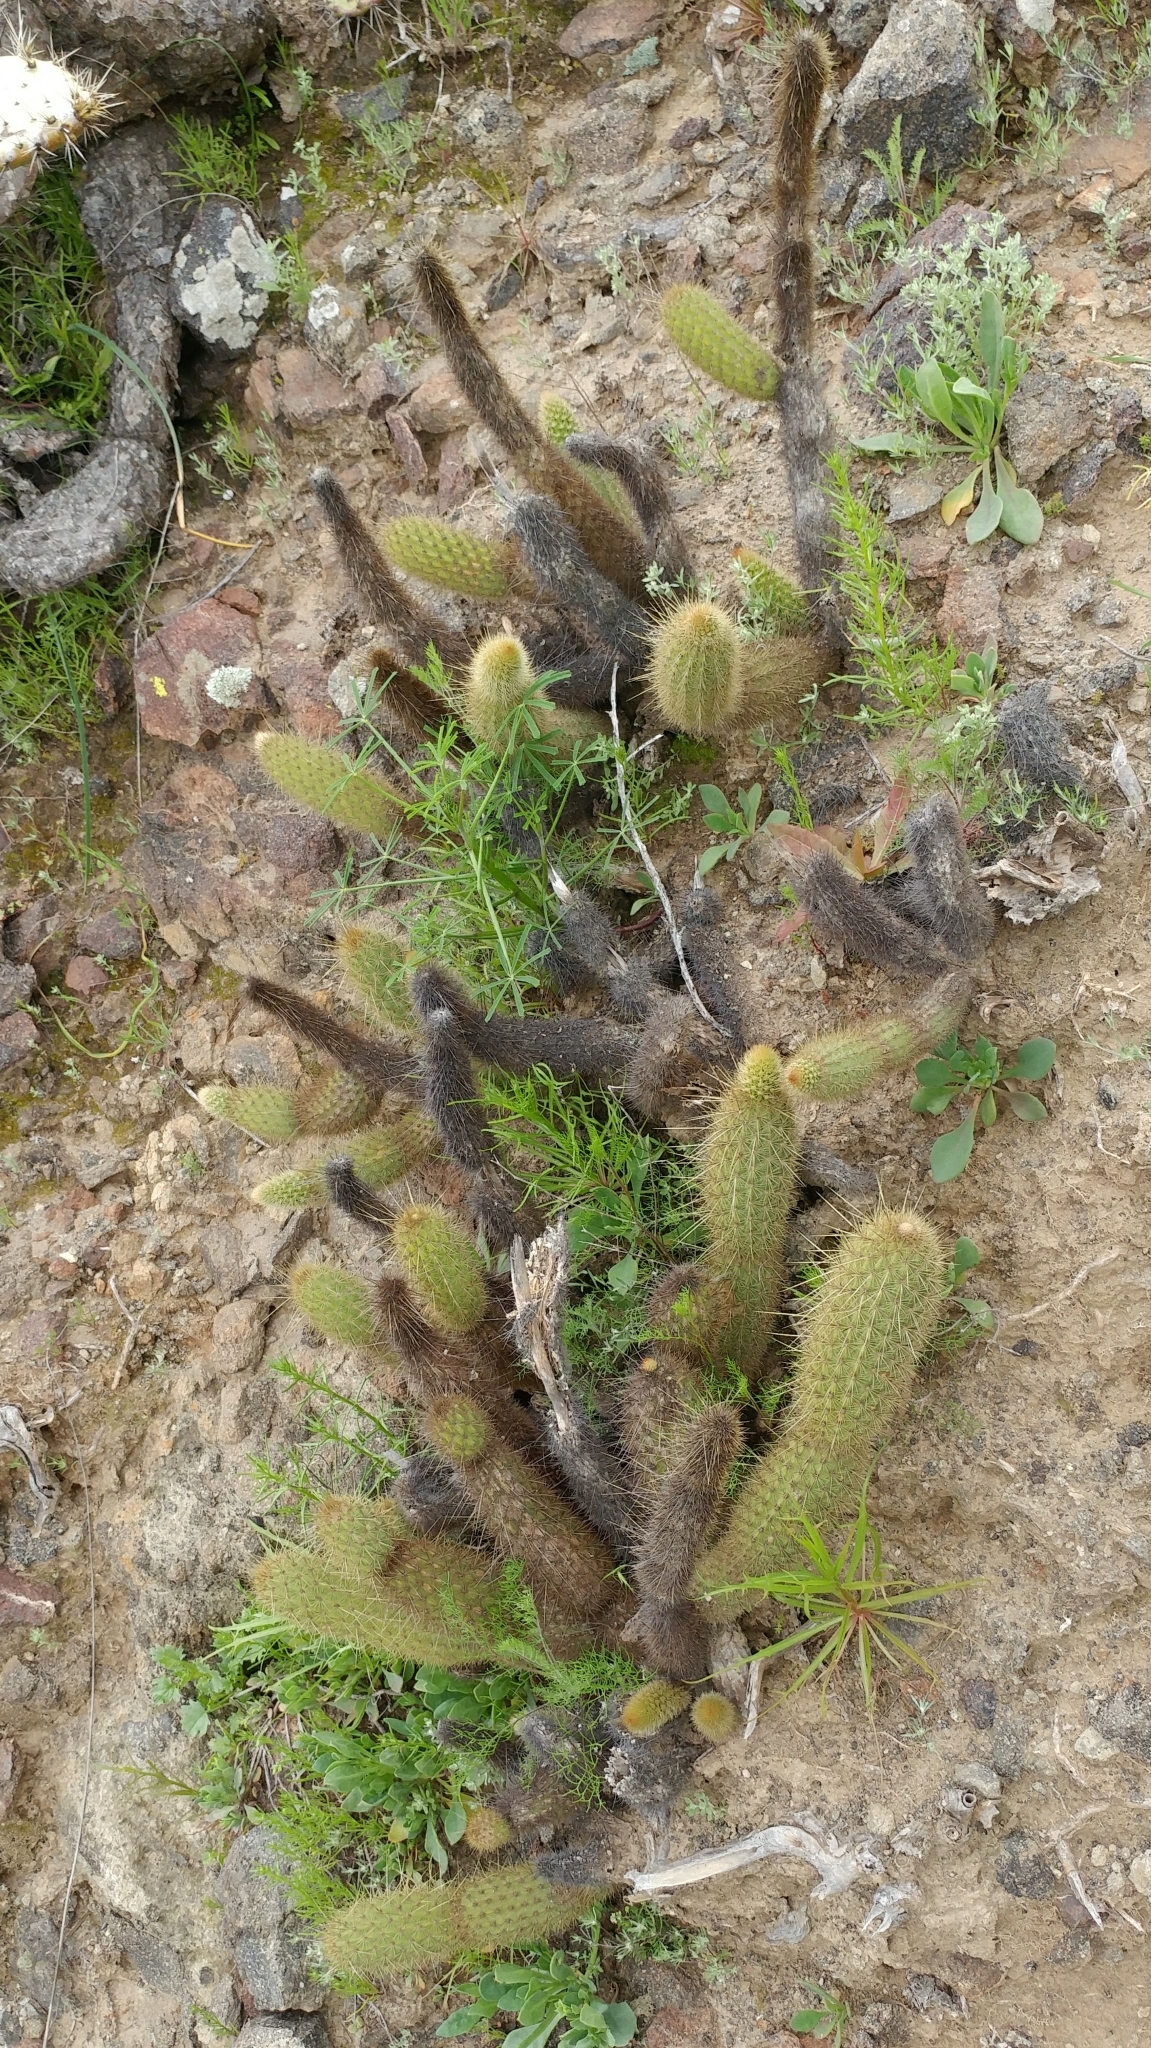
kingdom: Plantae
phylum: Tracheophyta
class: Magnoliopsida
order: Caryophyllales
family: Cactaceae
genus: Bergerocactus
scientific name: Bergerocactus emoryi
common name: Golden snakecactus
